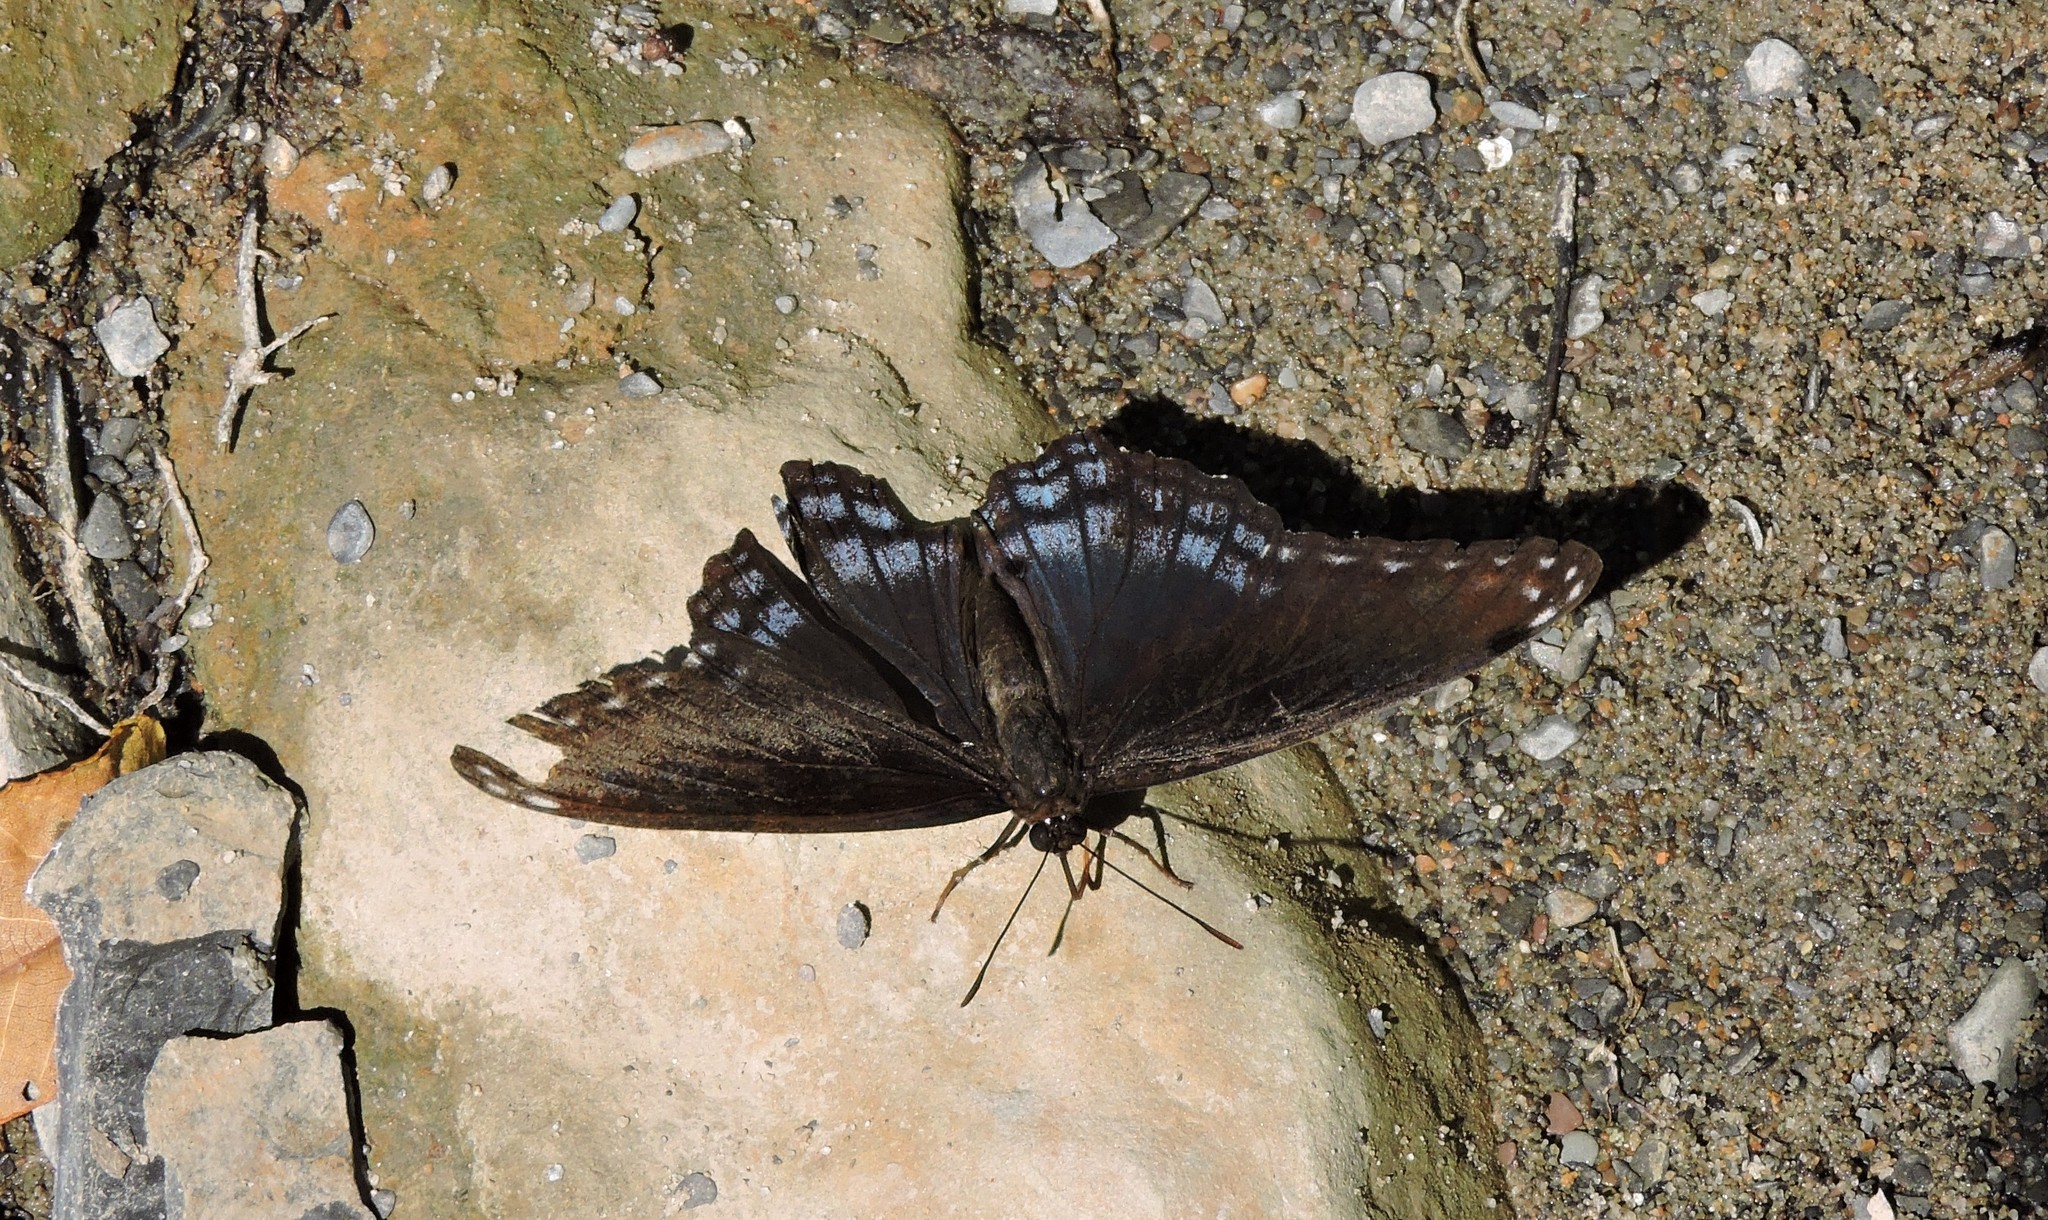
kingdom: Animalia
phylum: Arthropoda
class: Insecta
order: Lepidoptera
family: Nymphalidae
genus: Limenitis
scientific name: Limenitis astyanax
